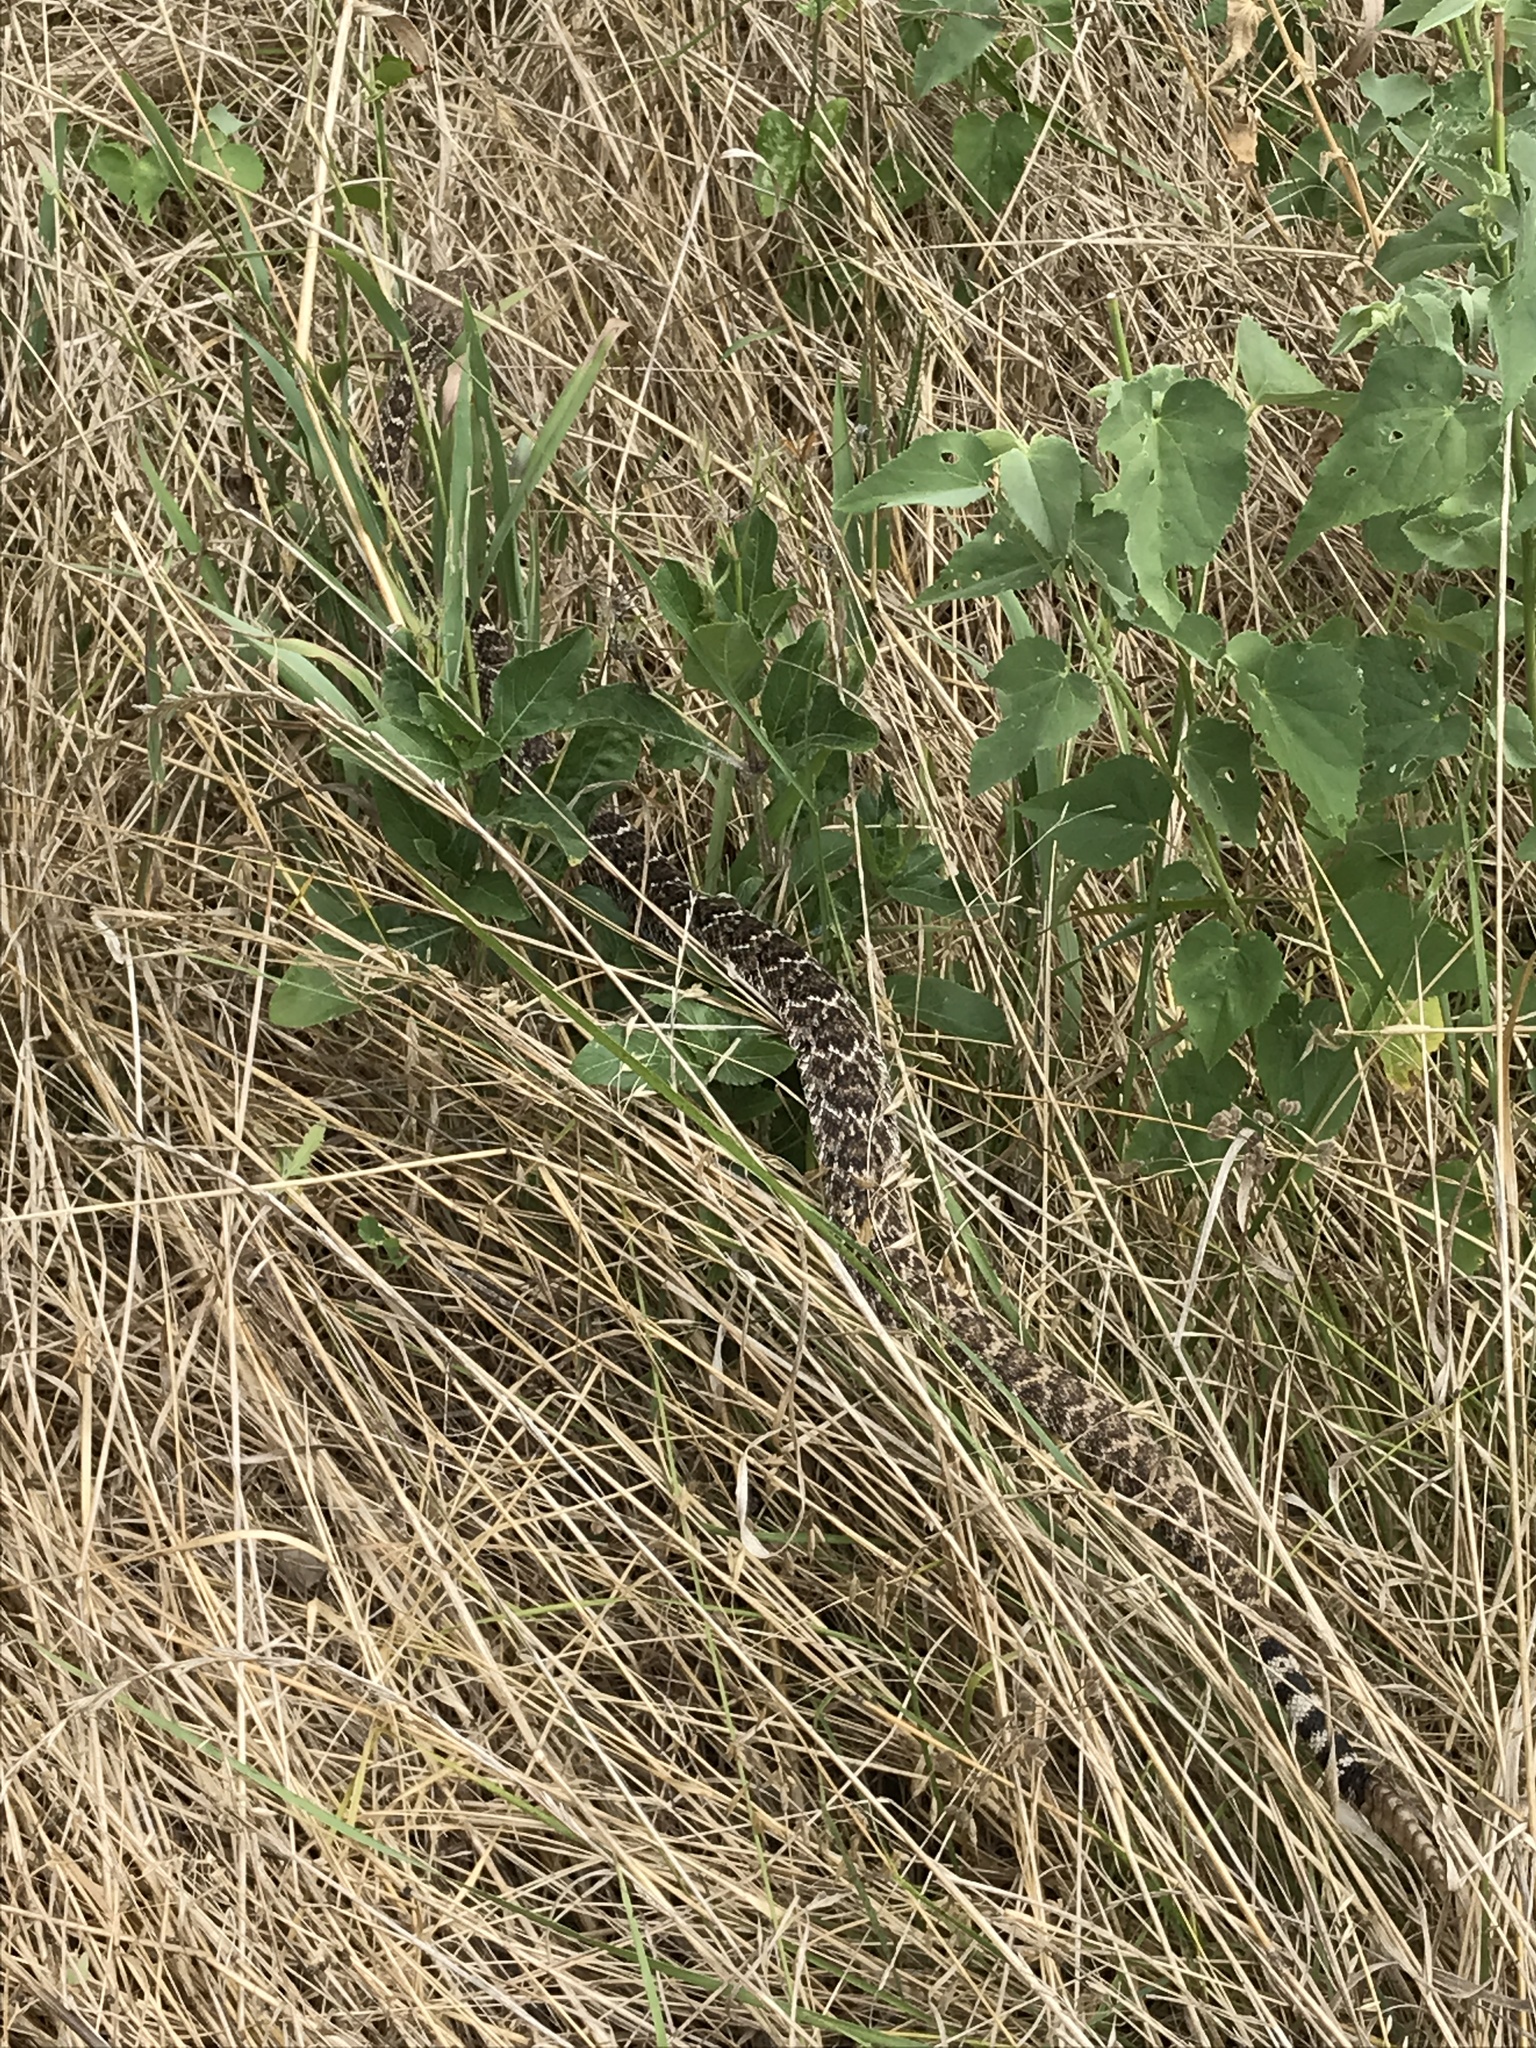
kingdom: Animalia
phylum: Chordata
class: Squamata
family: Viperidae
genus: Crotalus
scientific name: Crotalus atrox
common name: Western diamond-backed rattlesnake
